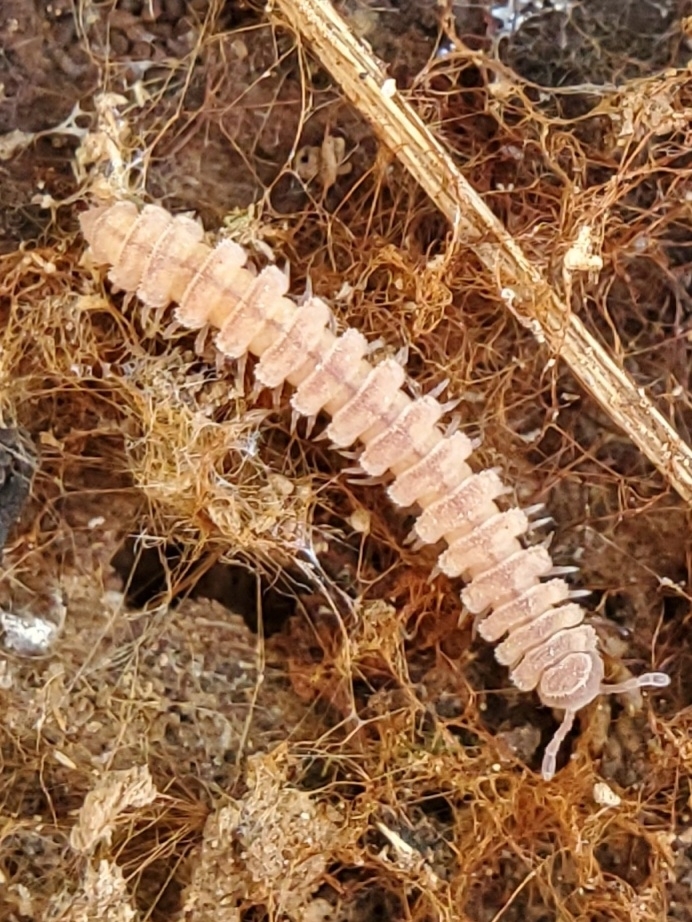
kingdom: Animalia
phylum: Arthropoda
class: Diplopoda
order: Polydesmida
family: Polydesmidae
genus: Scytonotus
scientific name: Scytonotus granulatus
